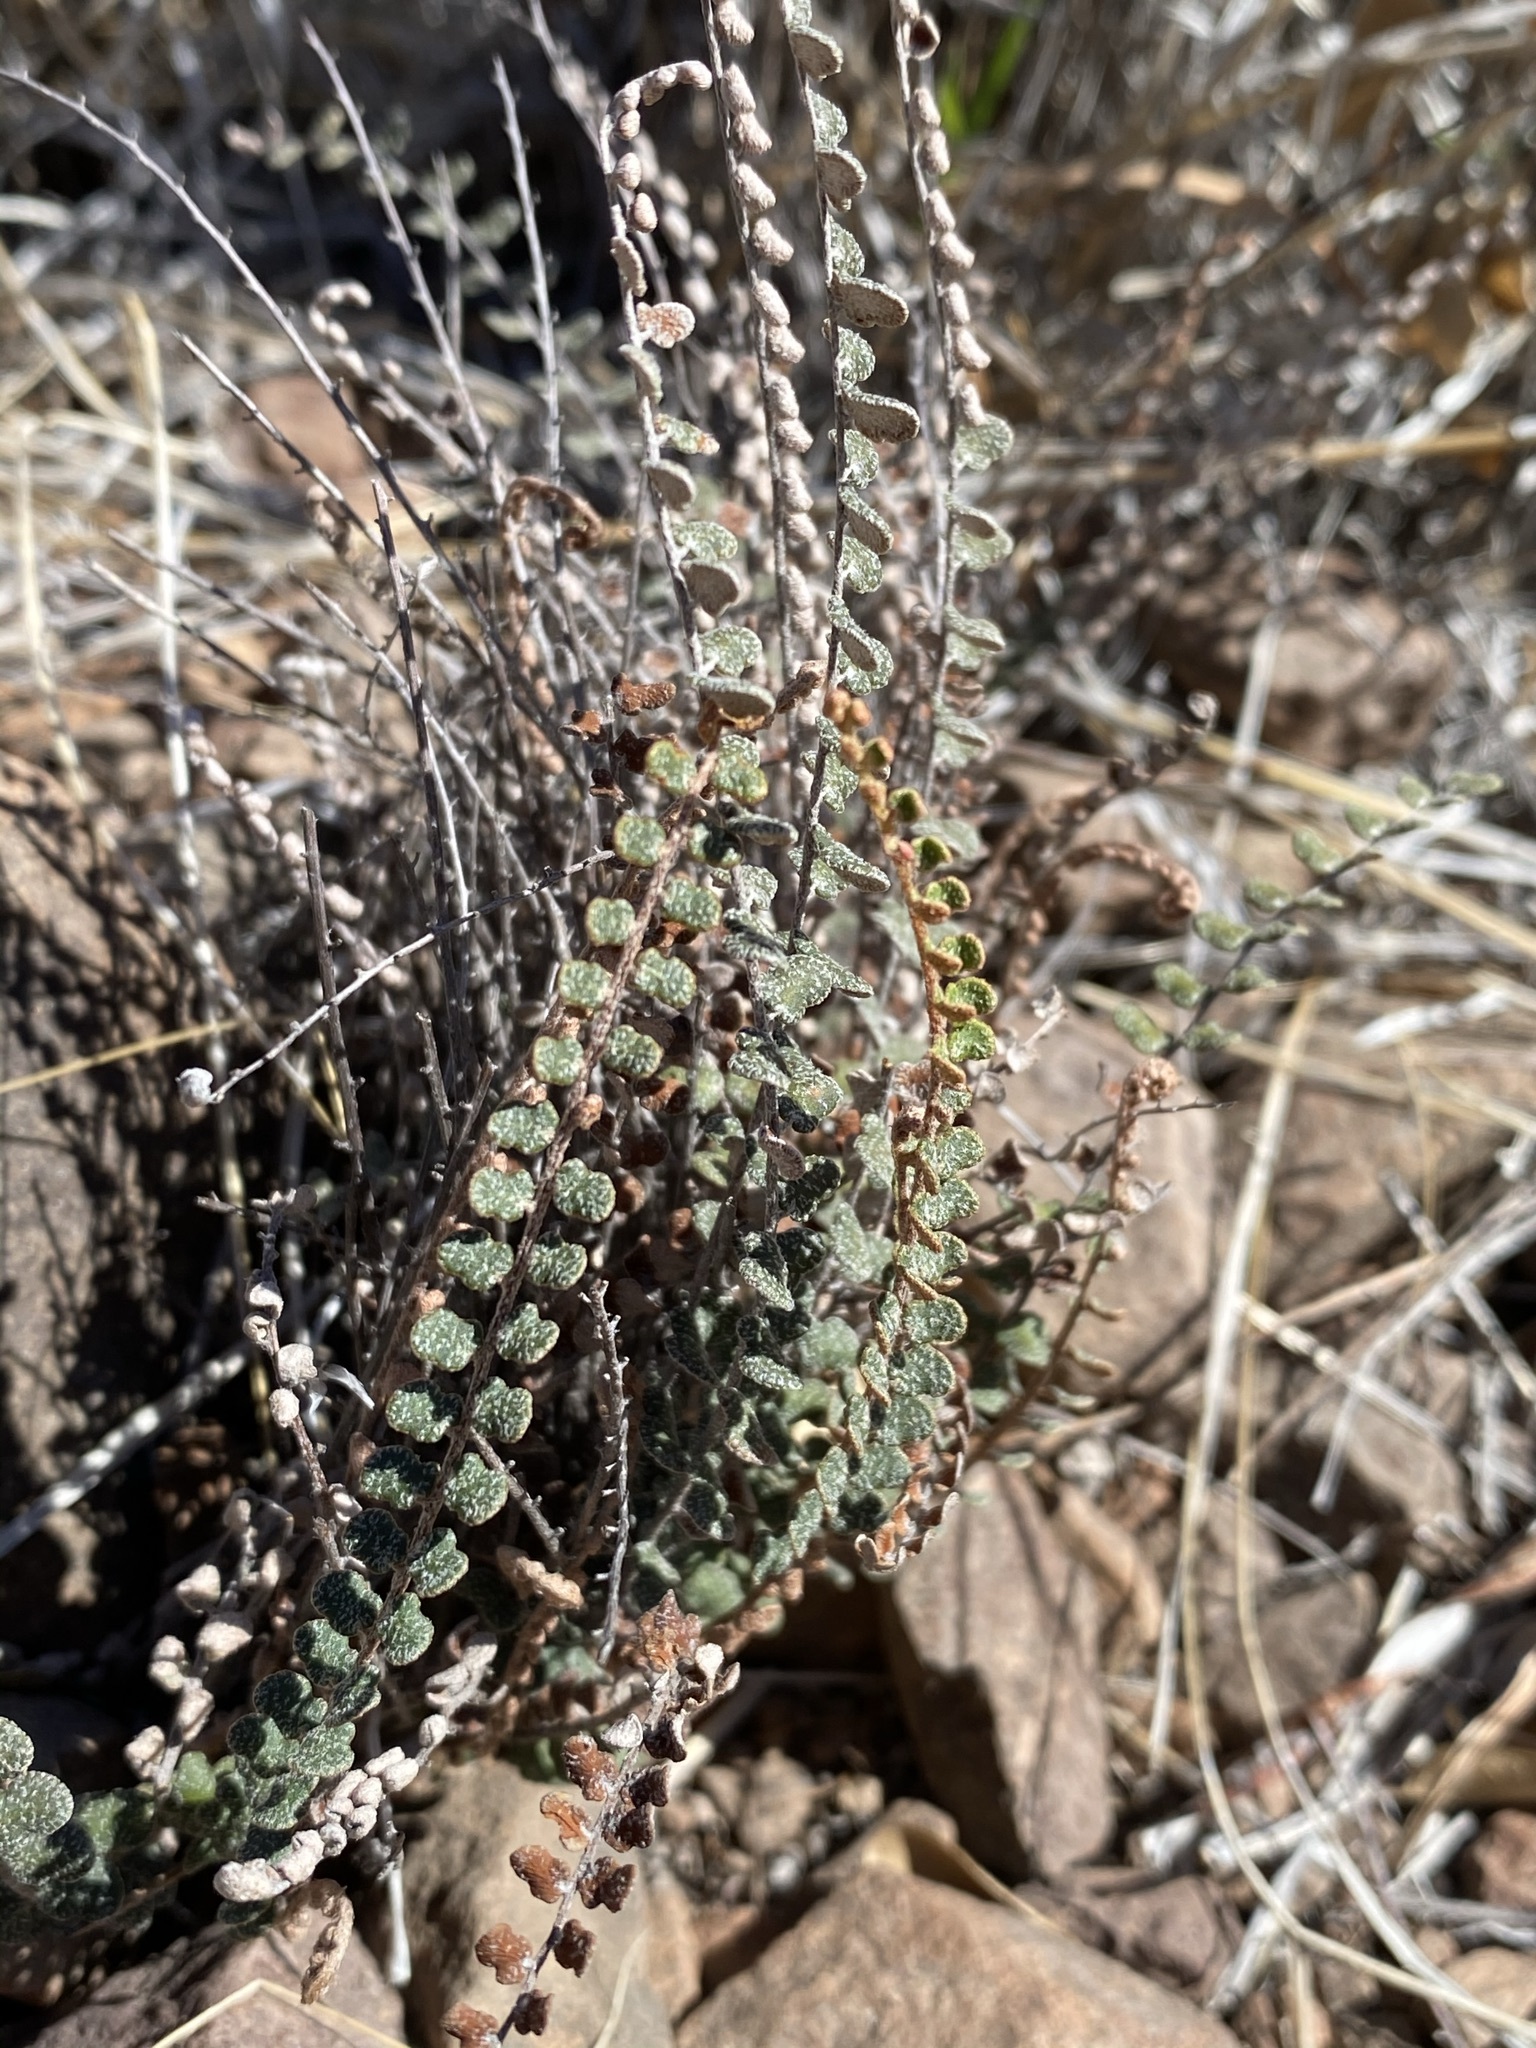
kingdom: Plantae
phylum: Tracheophyta
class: Polypodiopsida
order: Polypodiales
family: Pteridaceae
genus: Astrolepis
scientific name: Astrolepis cochisensis
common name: Scaly cloak fern
